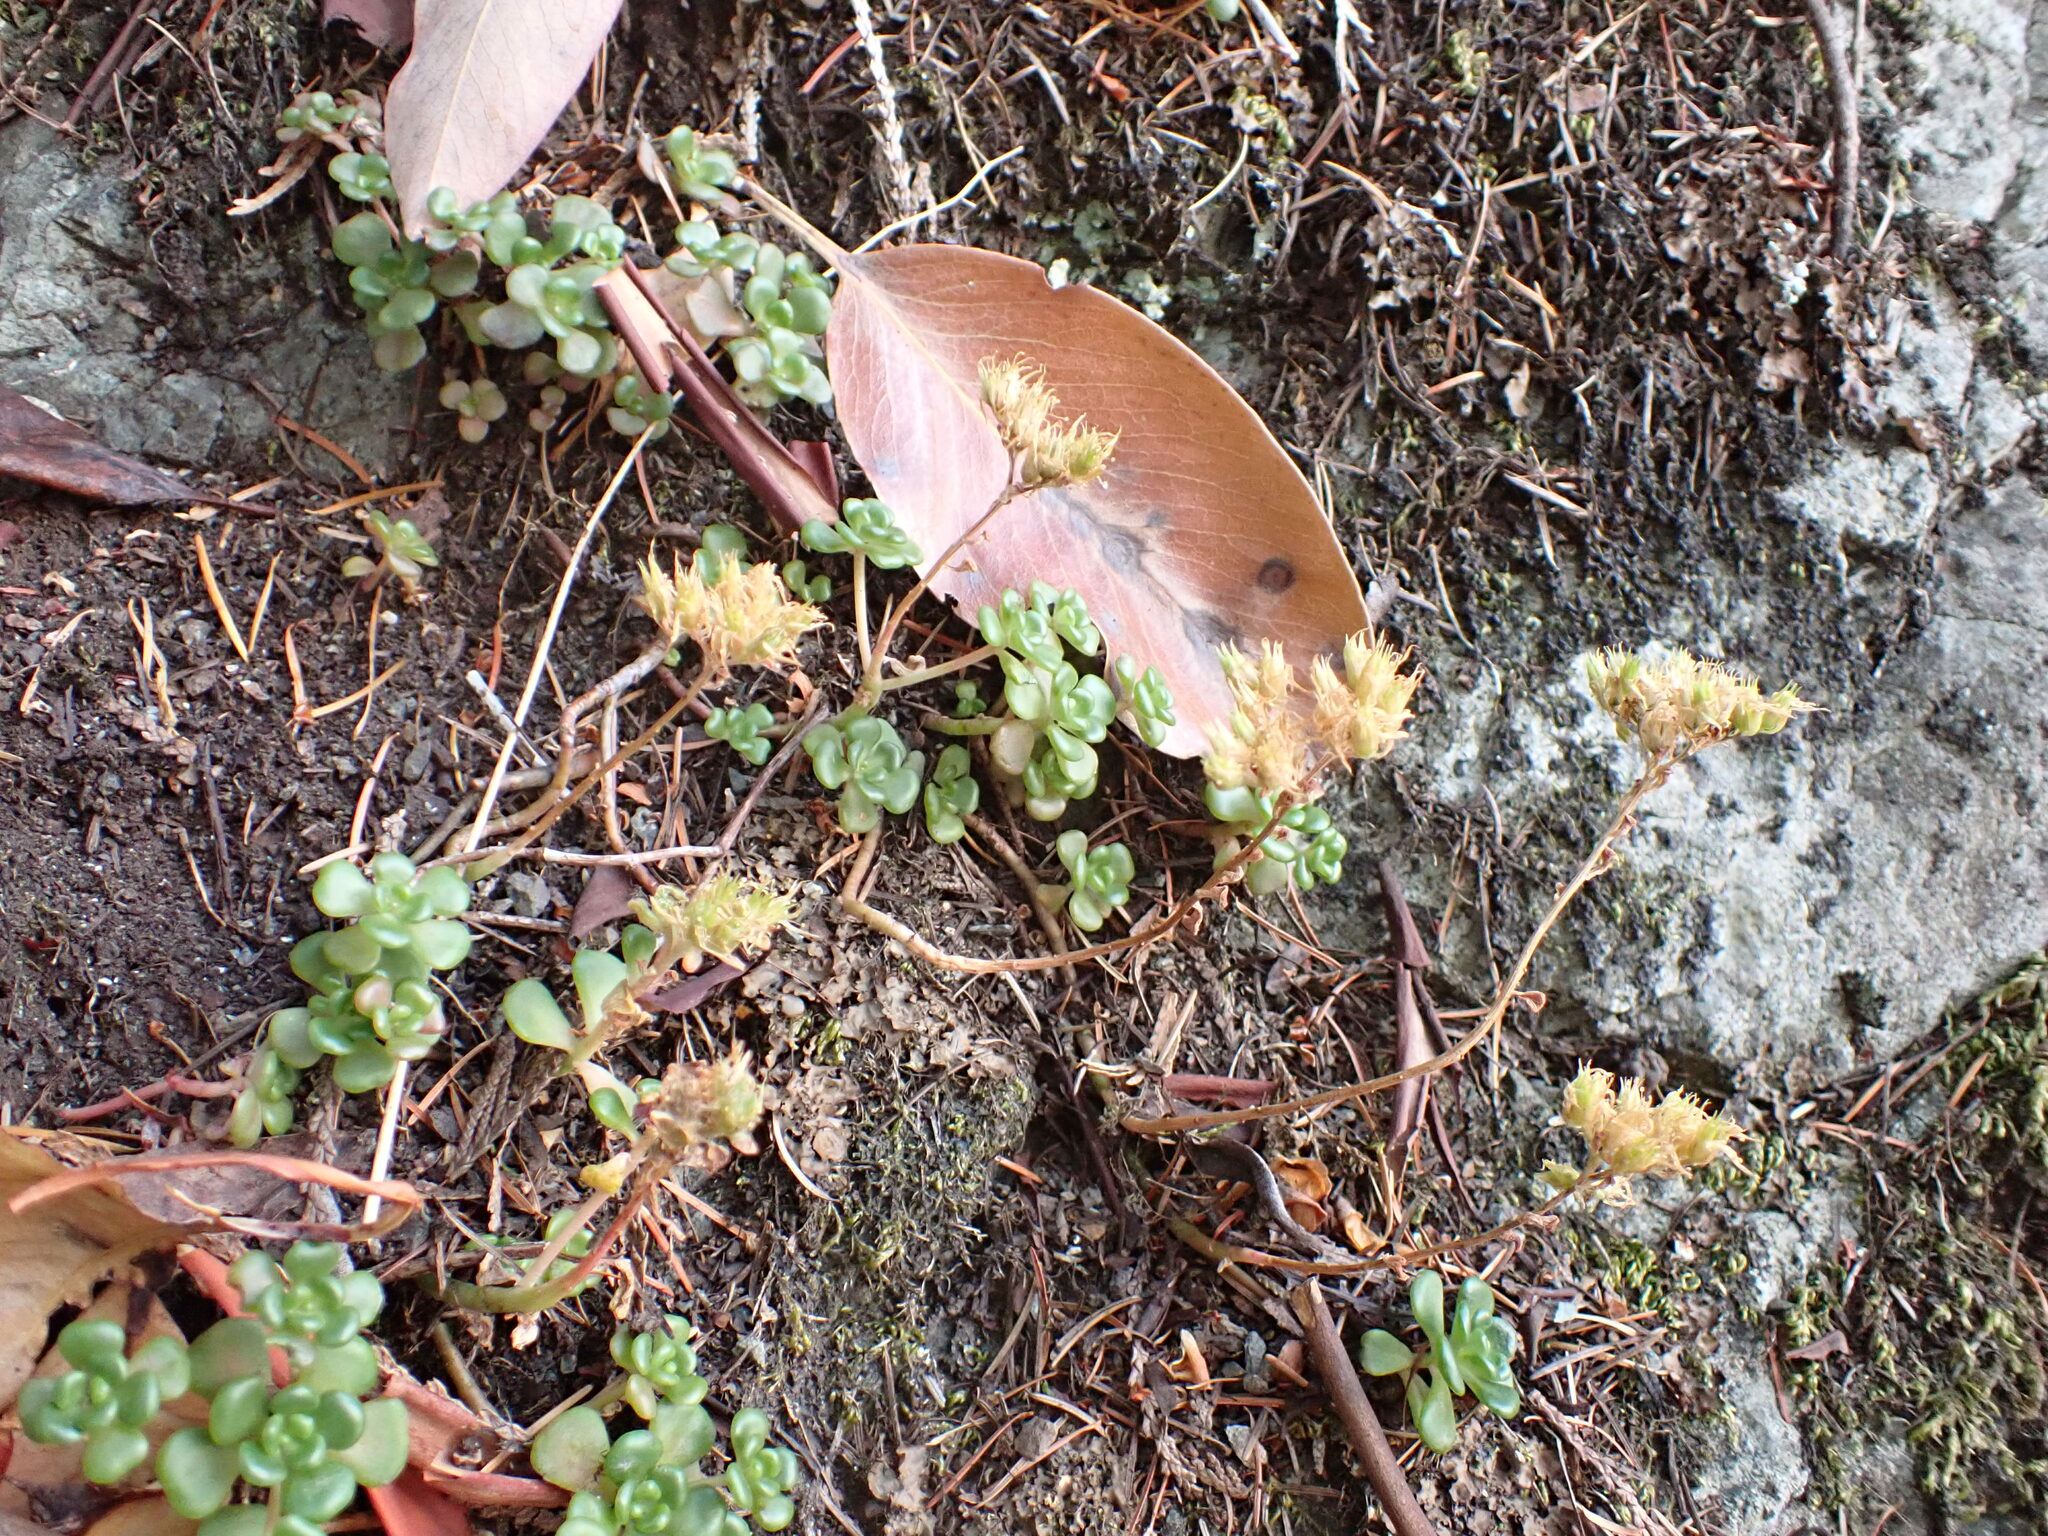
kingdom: Plantae
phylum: Tracheophyta
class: Magnoliopsida
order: Saxifragales
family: Crassulaceae
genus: Sedum
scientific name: Sedum oreganum
